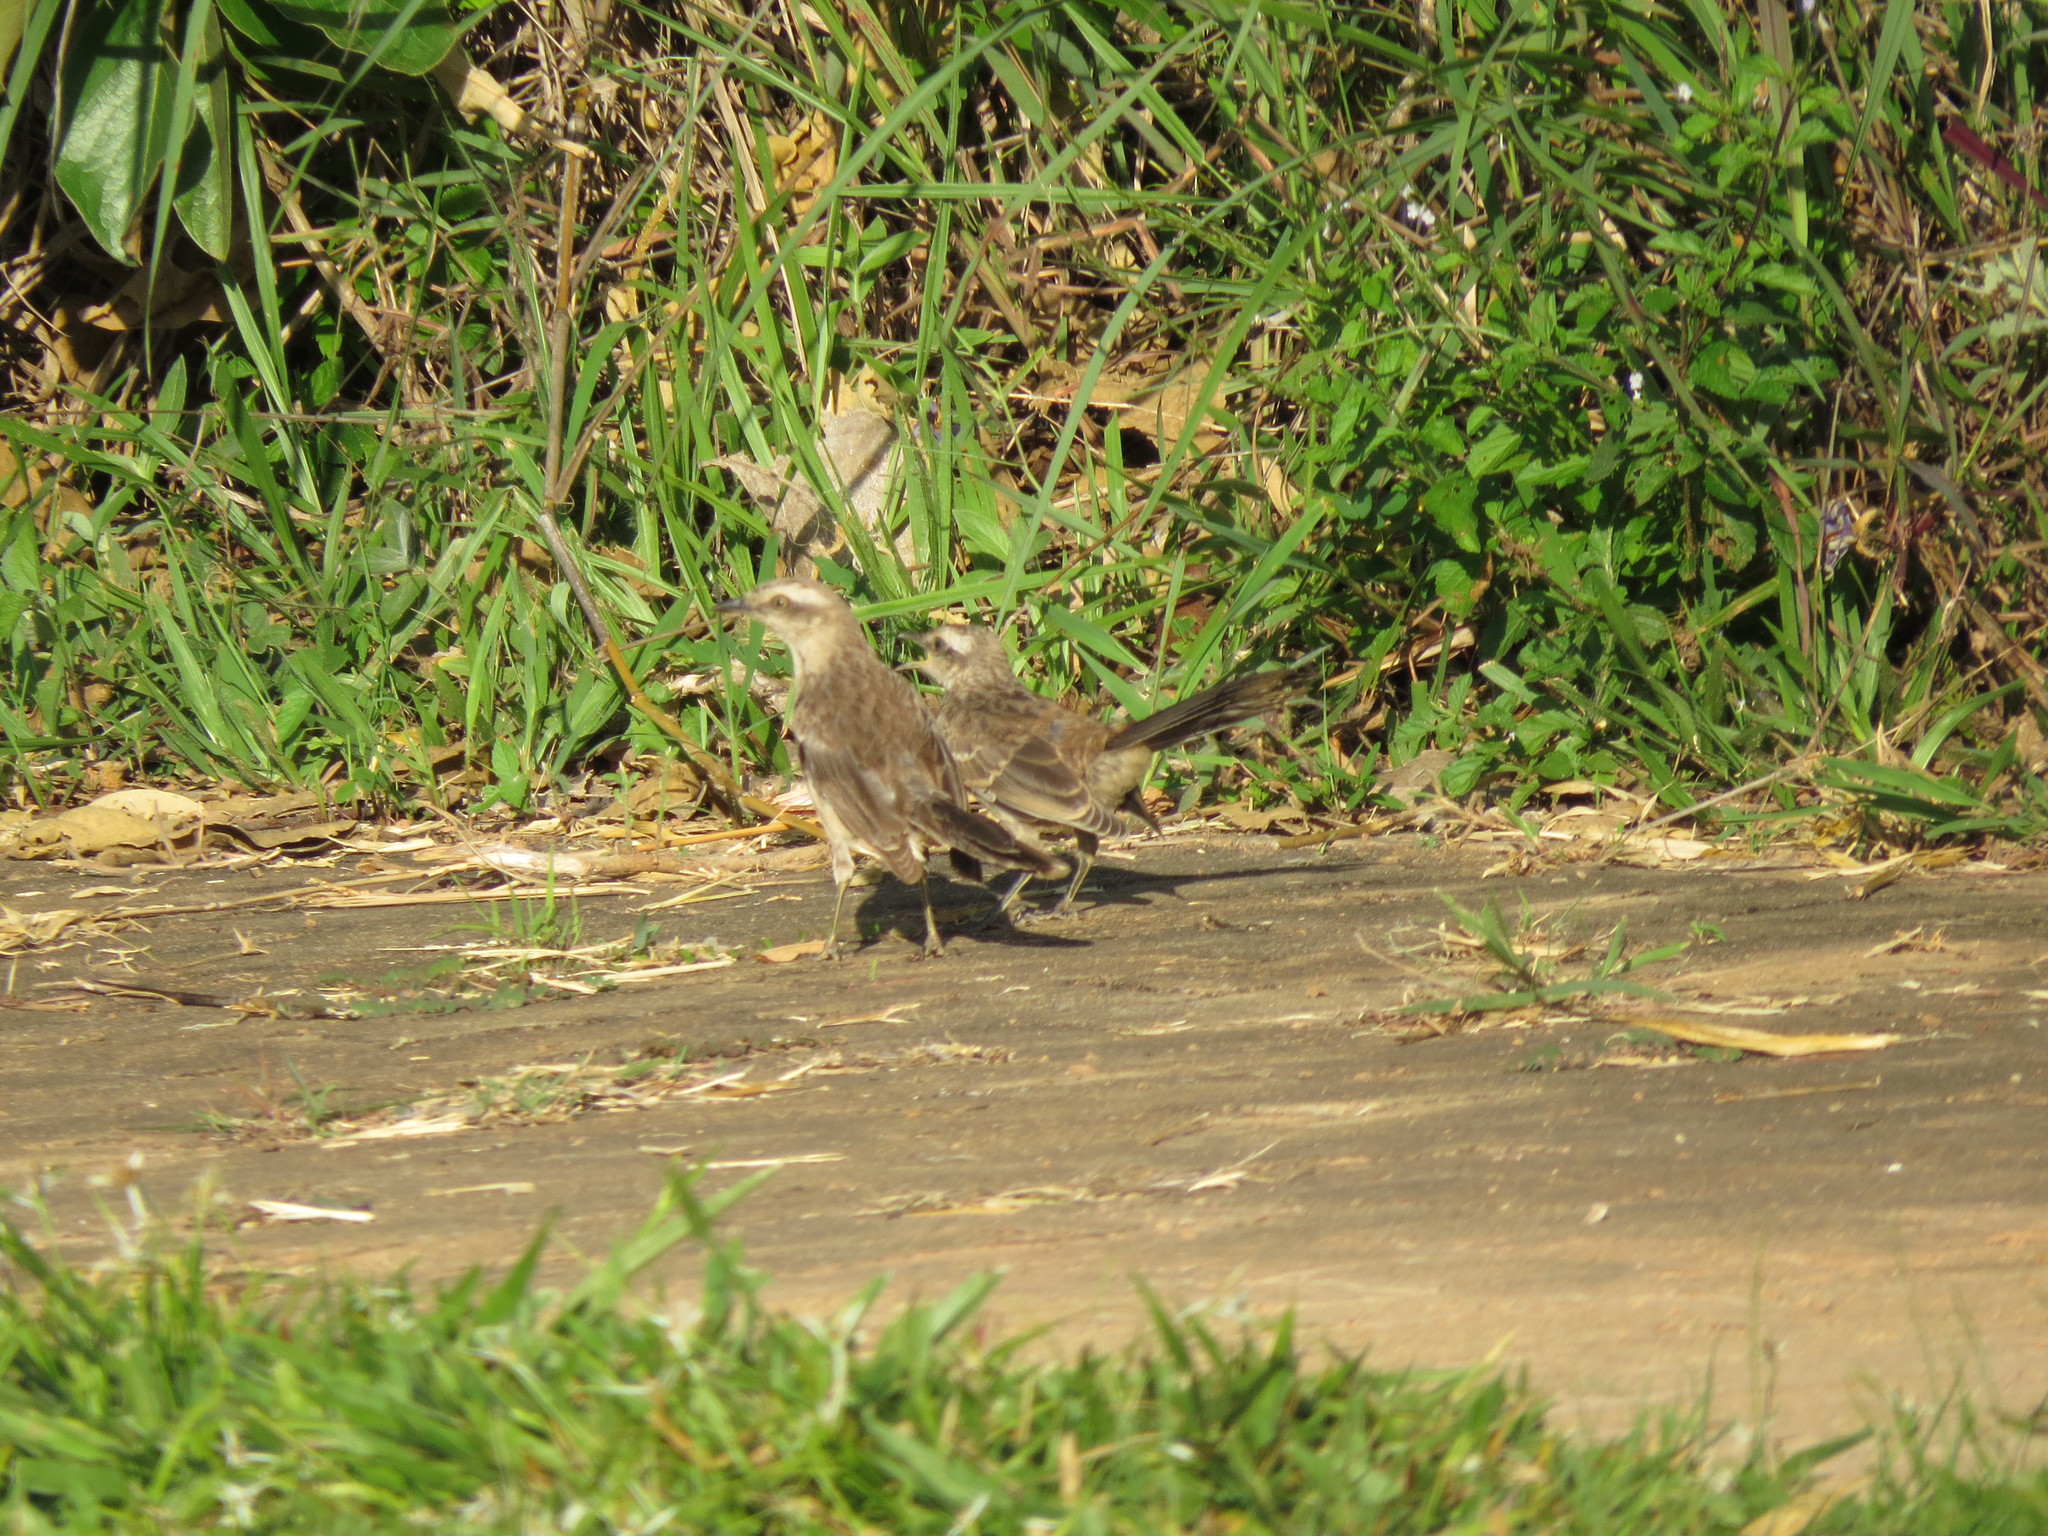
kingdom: Animalia
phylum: Chordata
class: Aves
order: Passeriformes
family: Mimidae
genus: Mimus
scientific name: Mimus saturninus
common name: Chalk-browed mockingbird
